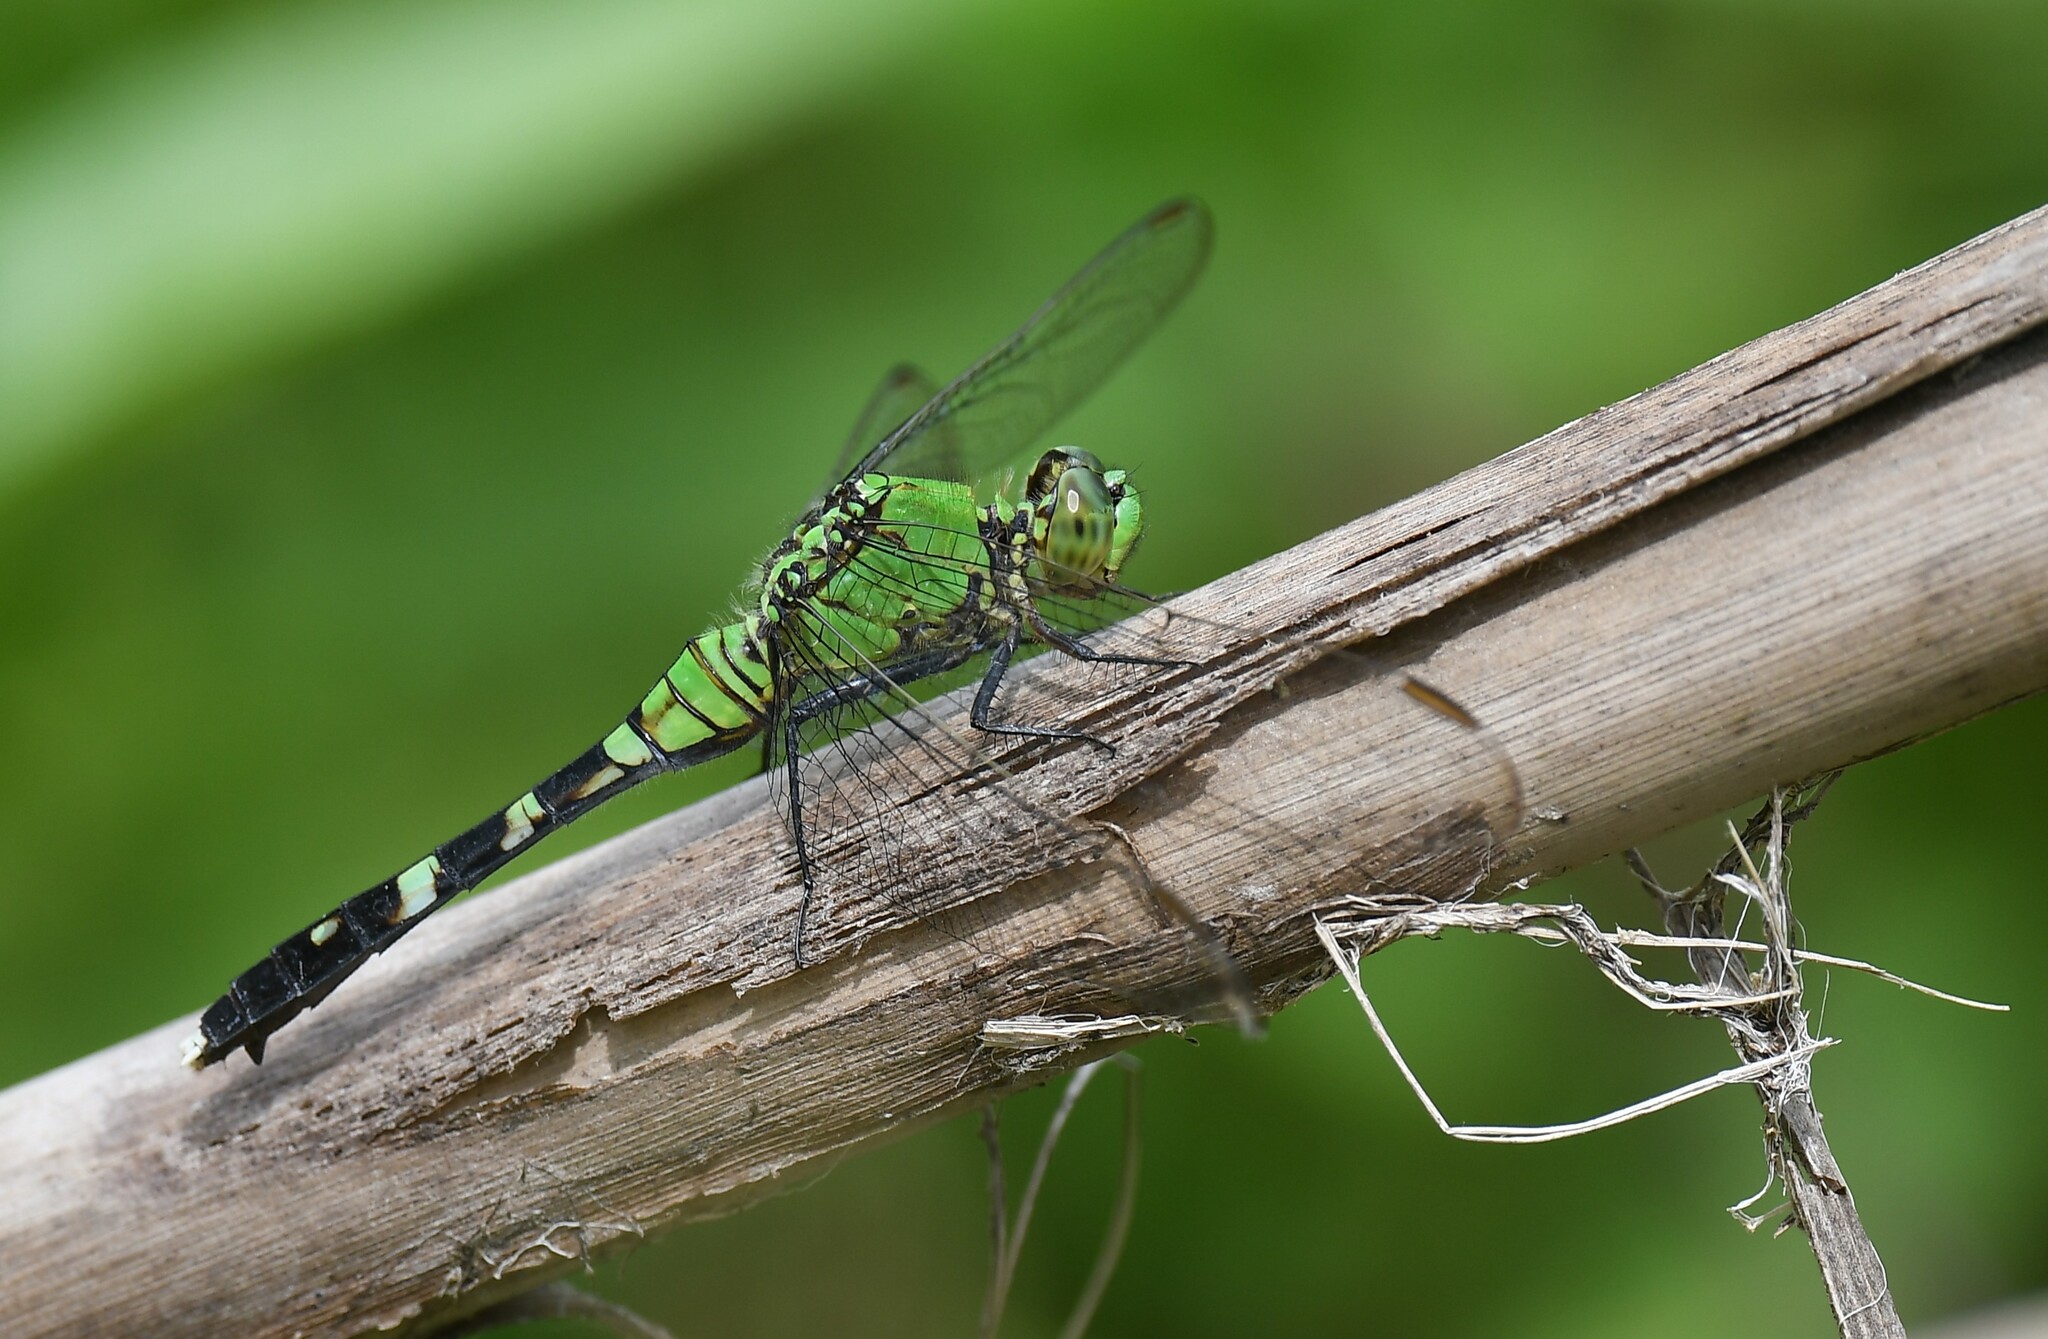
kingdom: Animalia
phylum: Arthropoda
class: Insecta
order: Odonata
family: Libellulidae
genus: Erythemis
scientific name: Erythemis simplicicollis
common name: Eastern pondhawk
